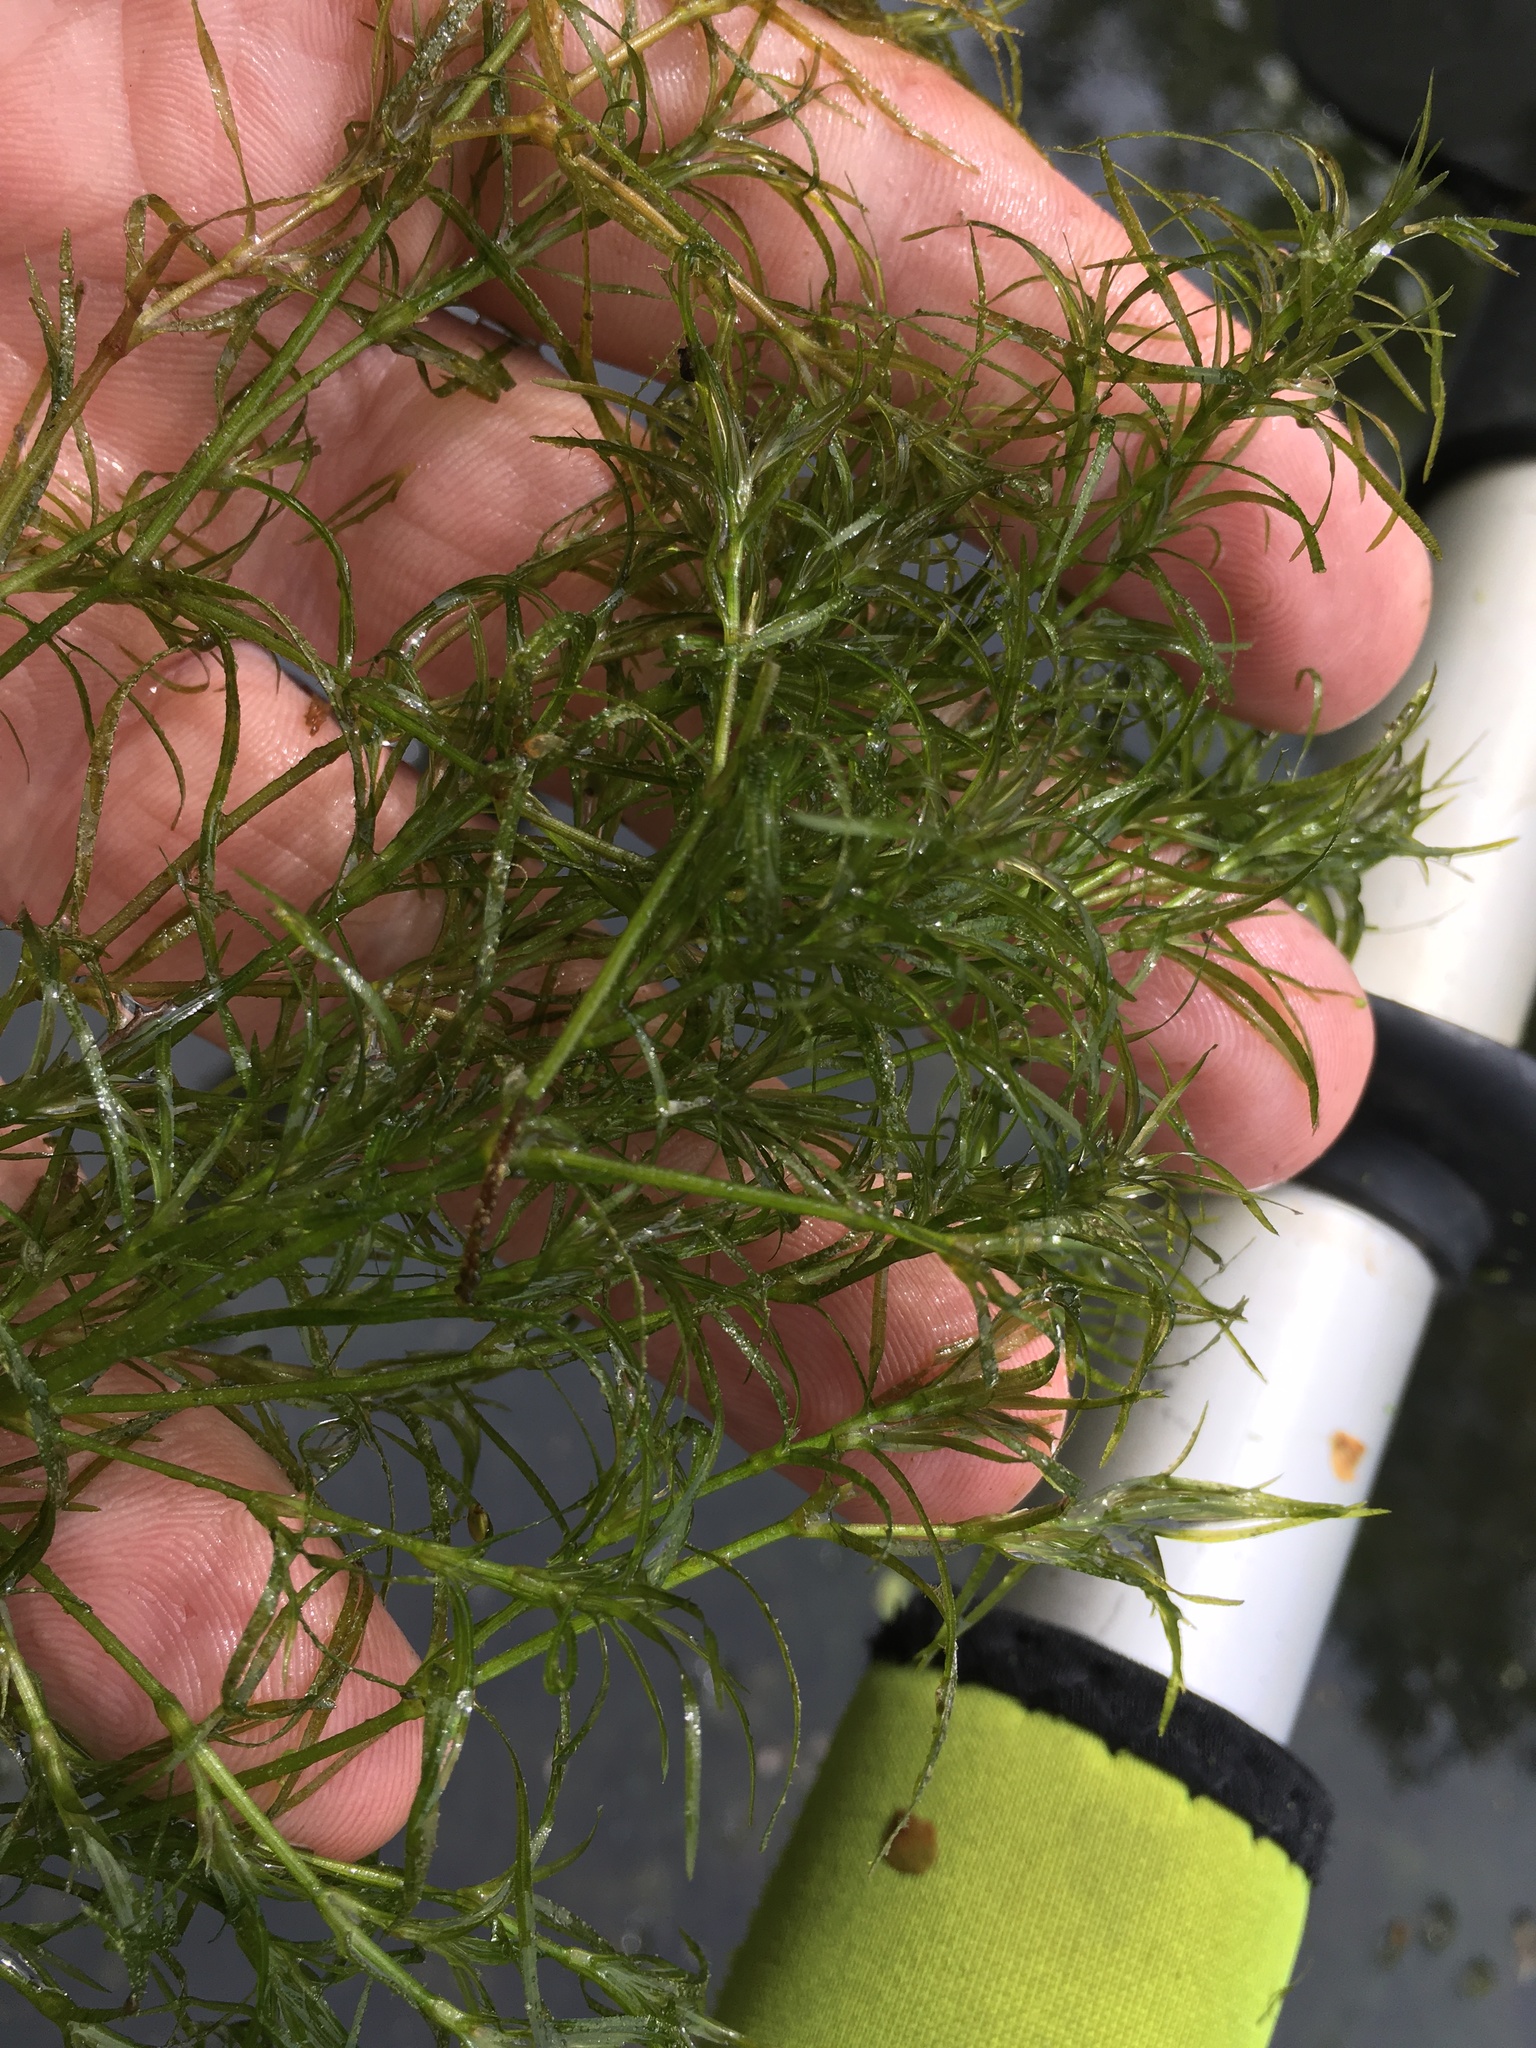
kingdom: Plantae
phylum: Tracheophyta
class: Liliopsida
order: Alismatales
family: Hydrocharitaceae
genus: Najas
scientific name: Najas flexilis
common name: Slender naiad
